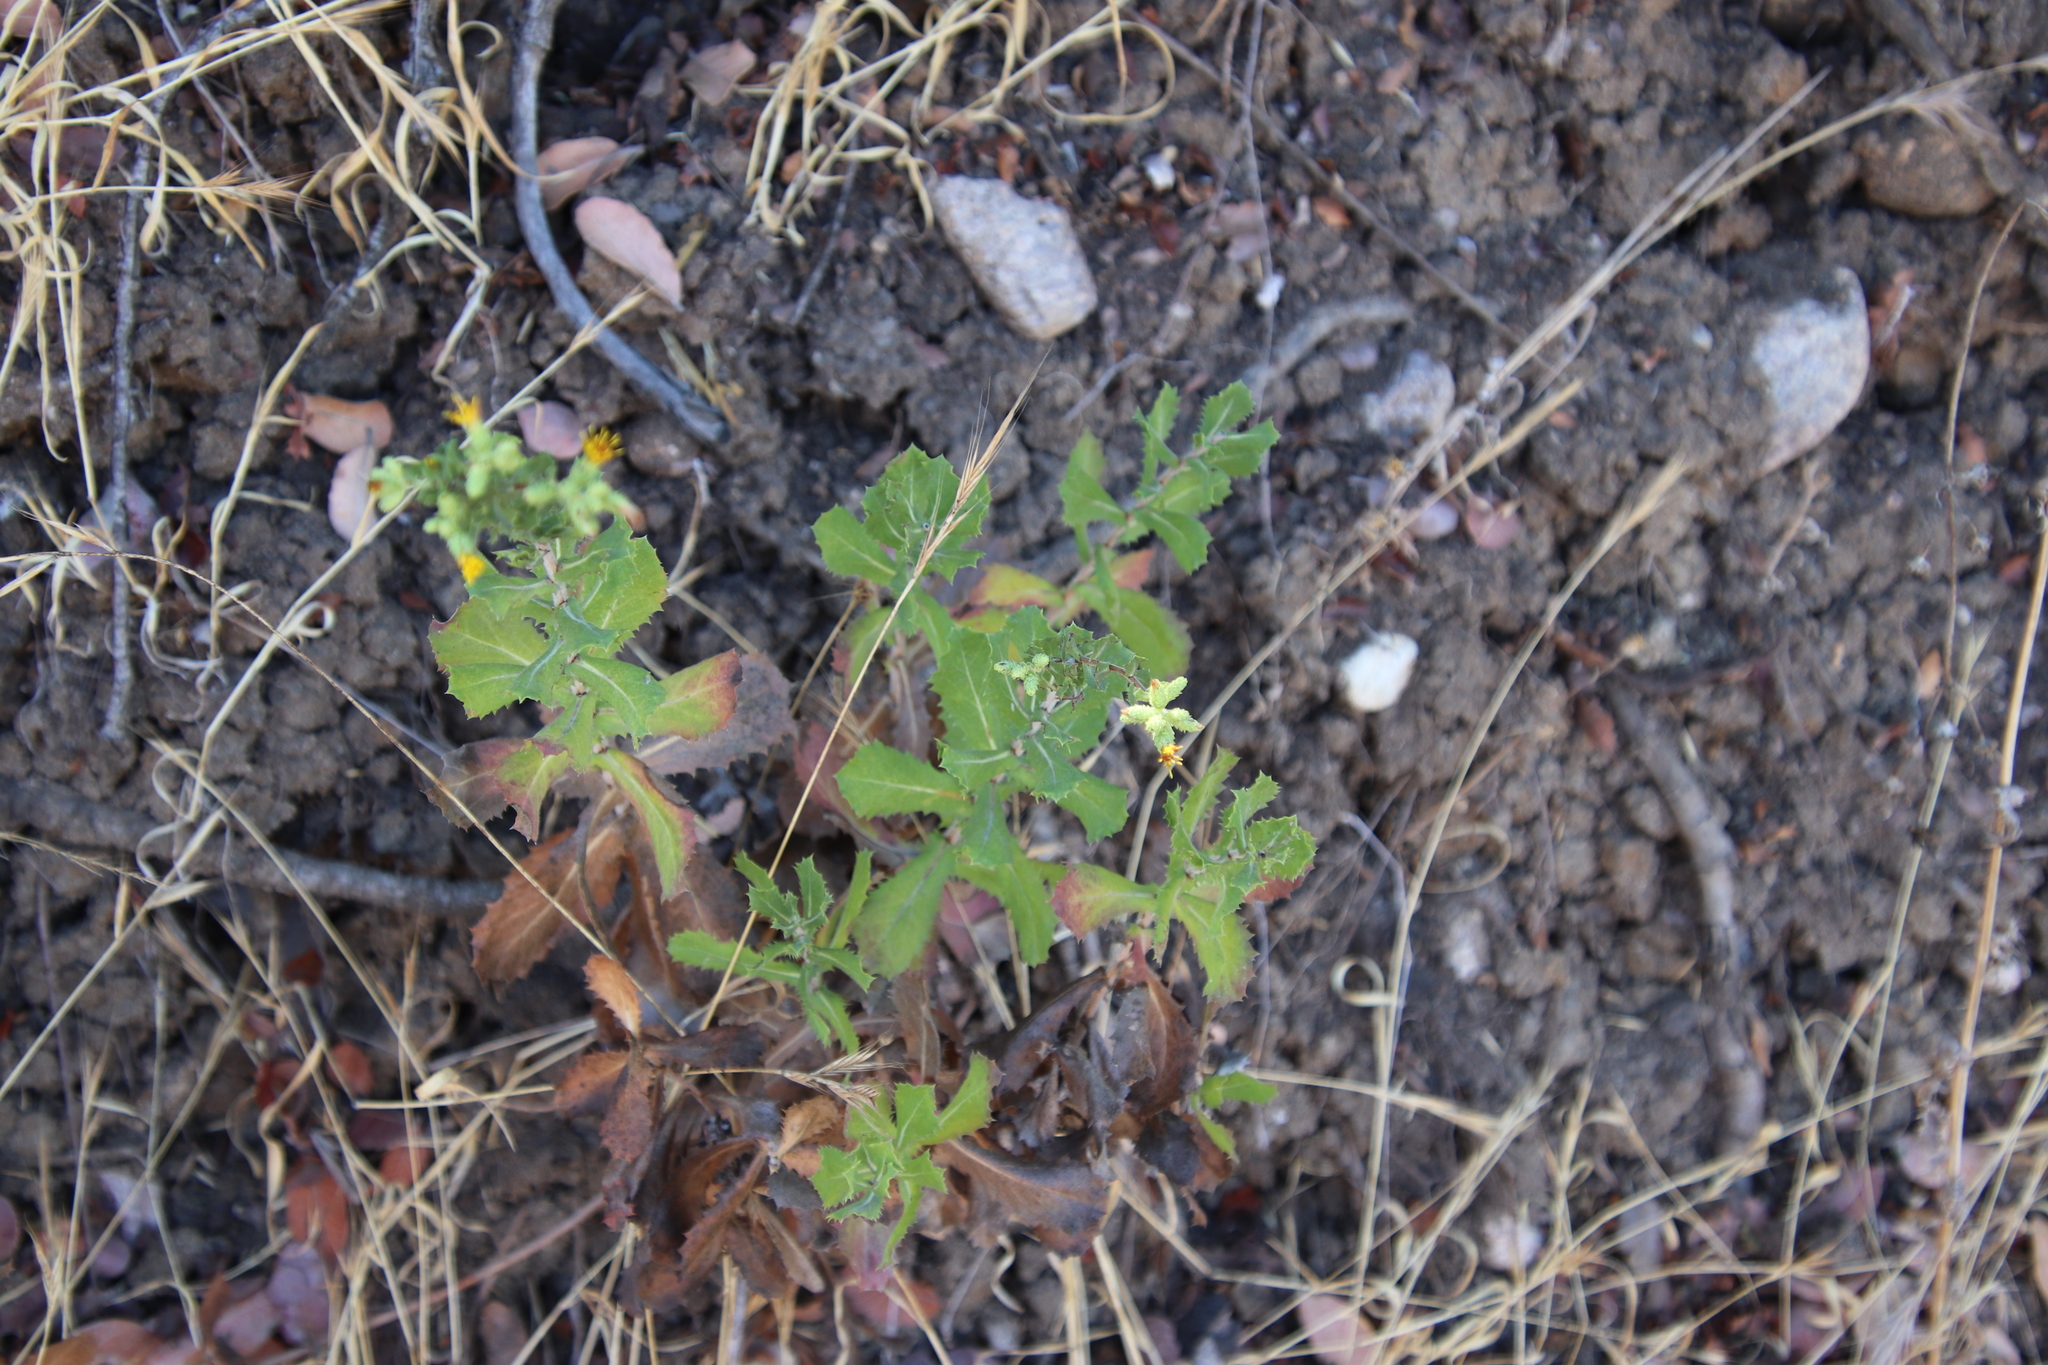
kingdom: Plantae
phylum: Tracheophyta
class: Magnoliopsida
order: Asterales
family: Asteraceae
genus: Hazardia
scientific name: Hazardia squarrosa
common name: Saw-tooth goldenbush
